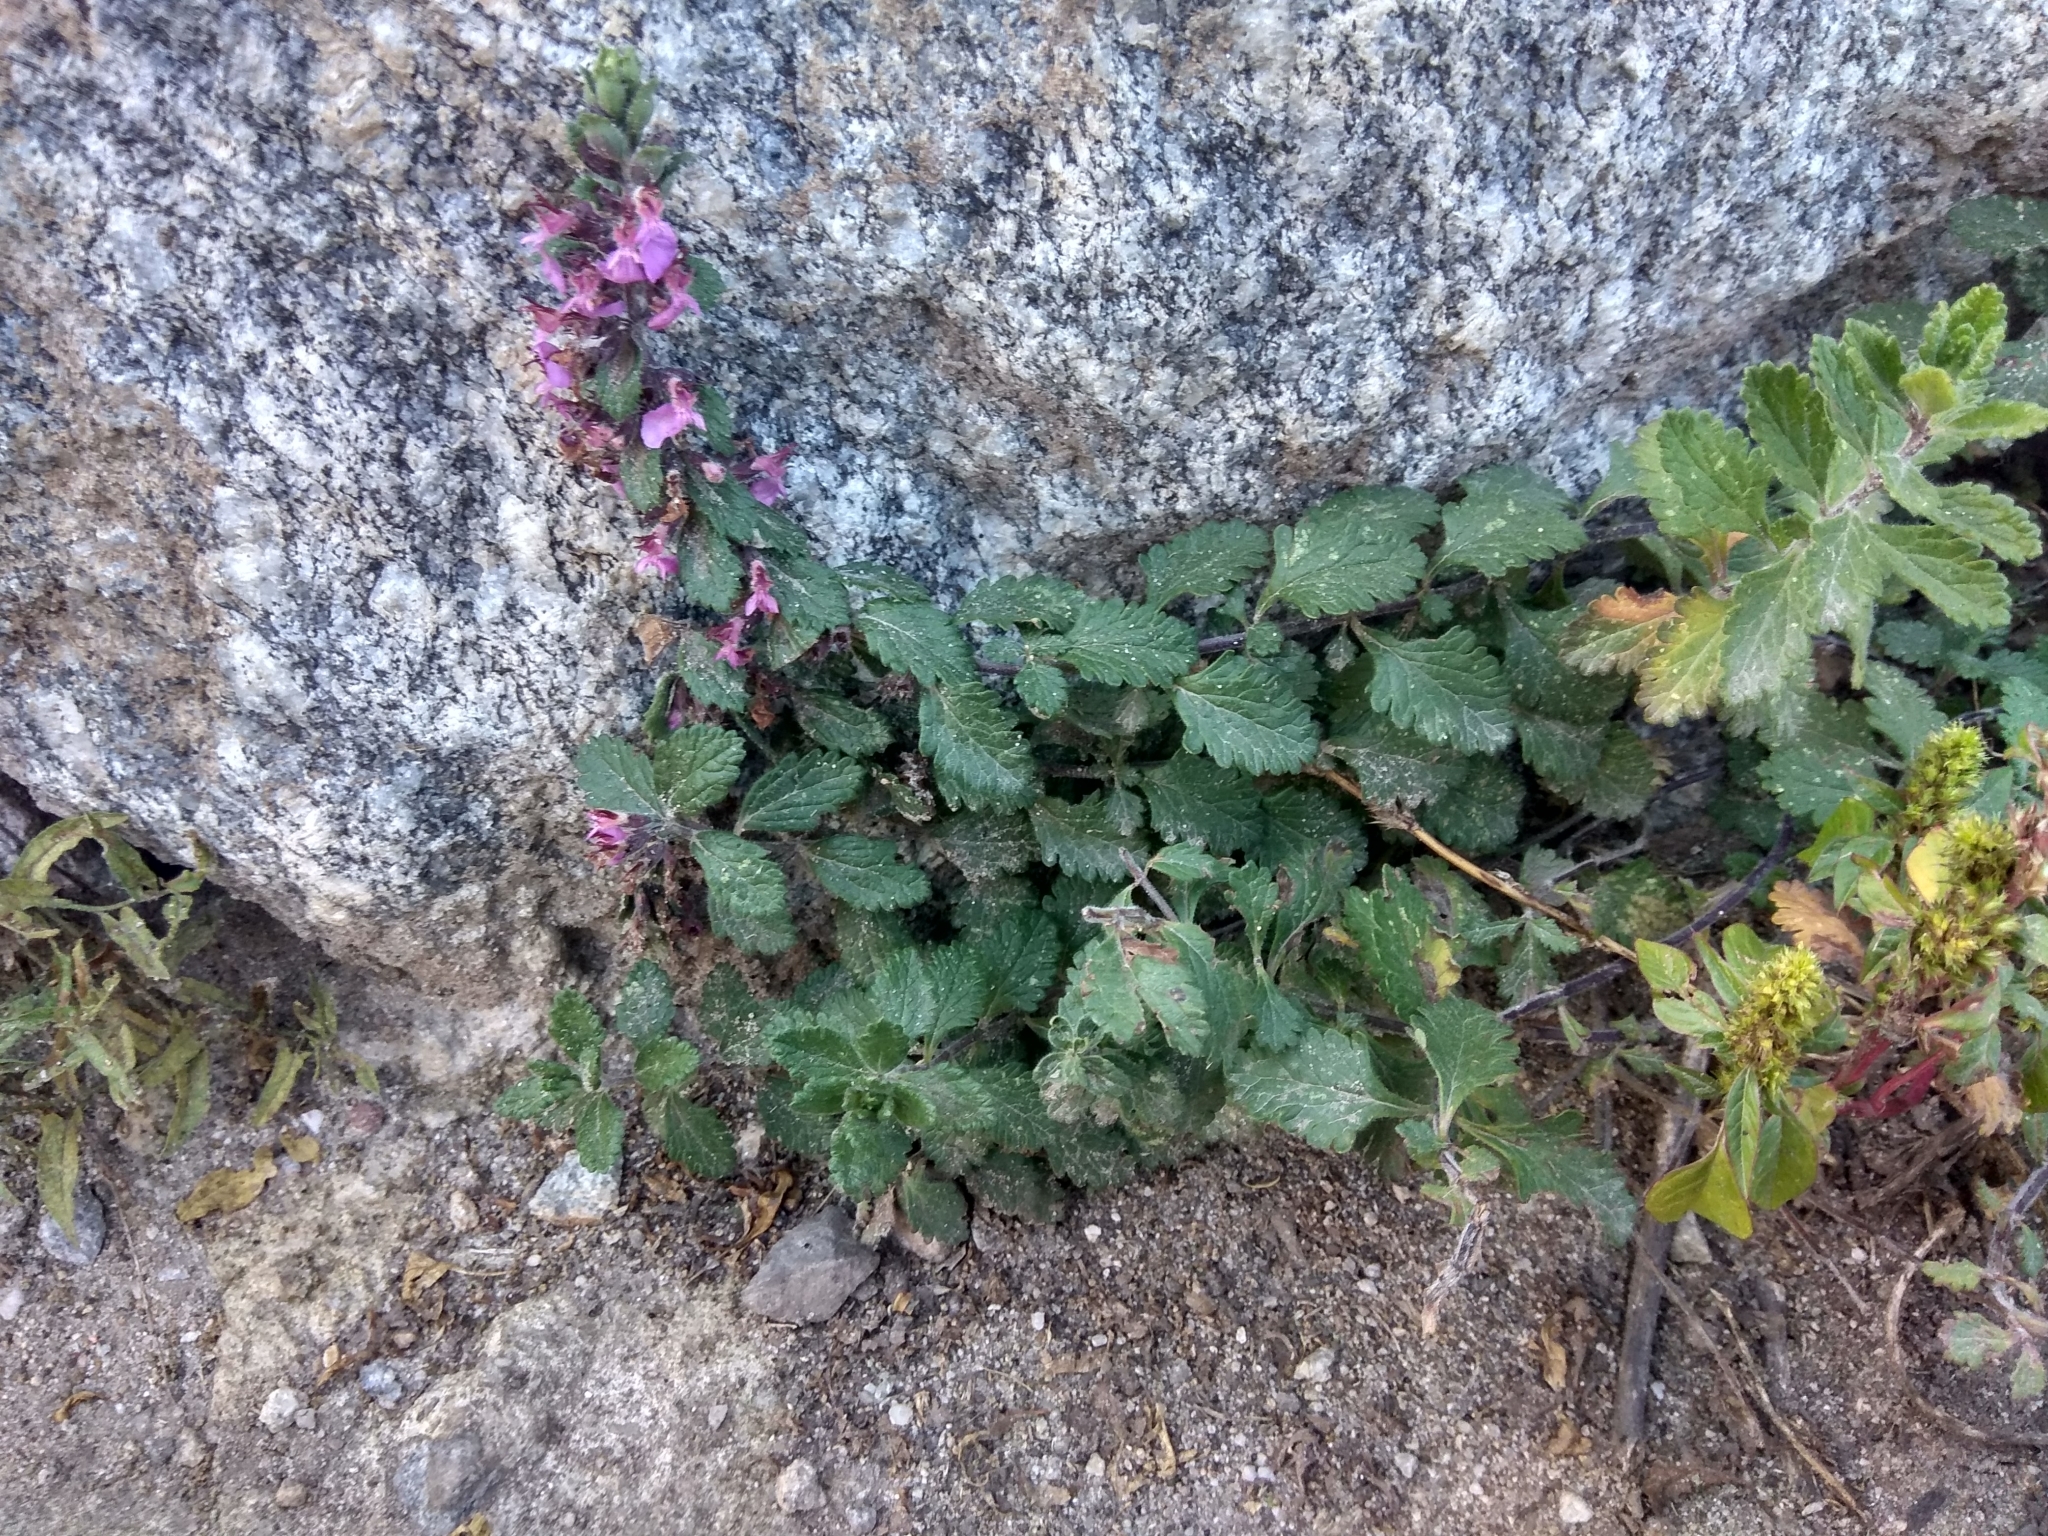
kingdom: Plantae
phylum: Tracheophyta
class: Magnoliopsida
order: Lamiales
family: Lamiaceae
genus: Teucrium
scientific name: Teucrium chamaedrys
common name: Wall germander
